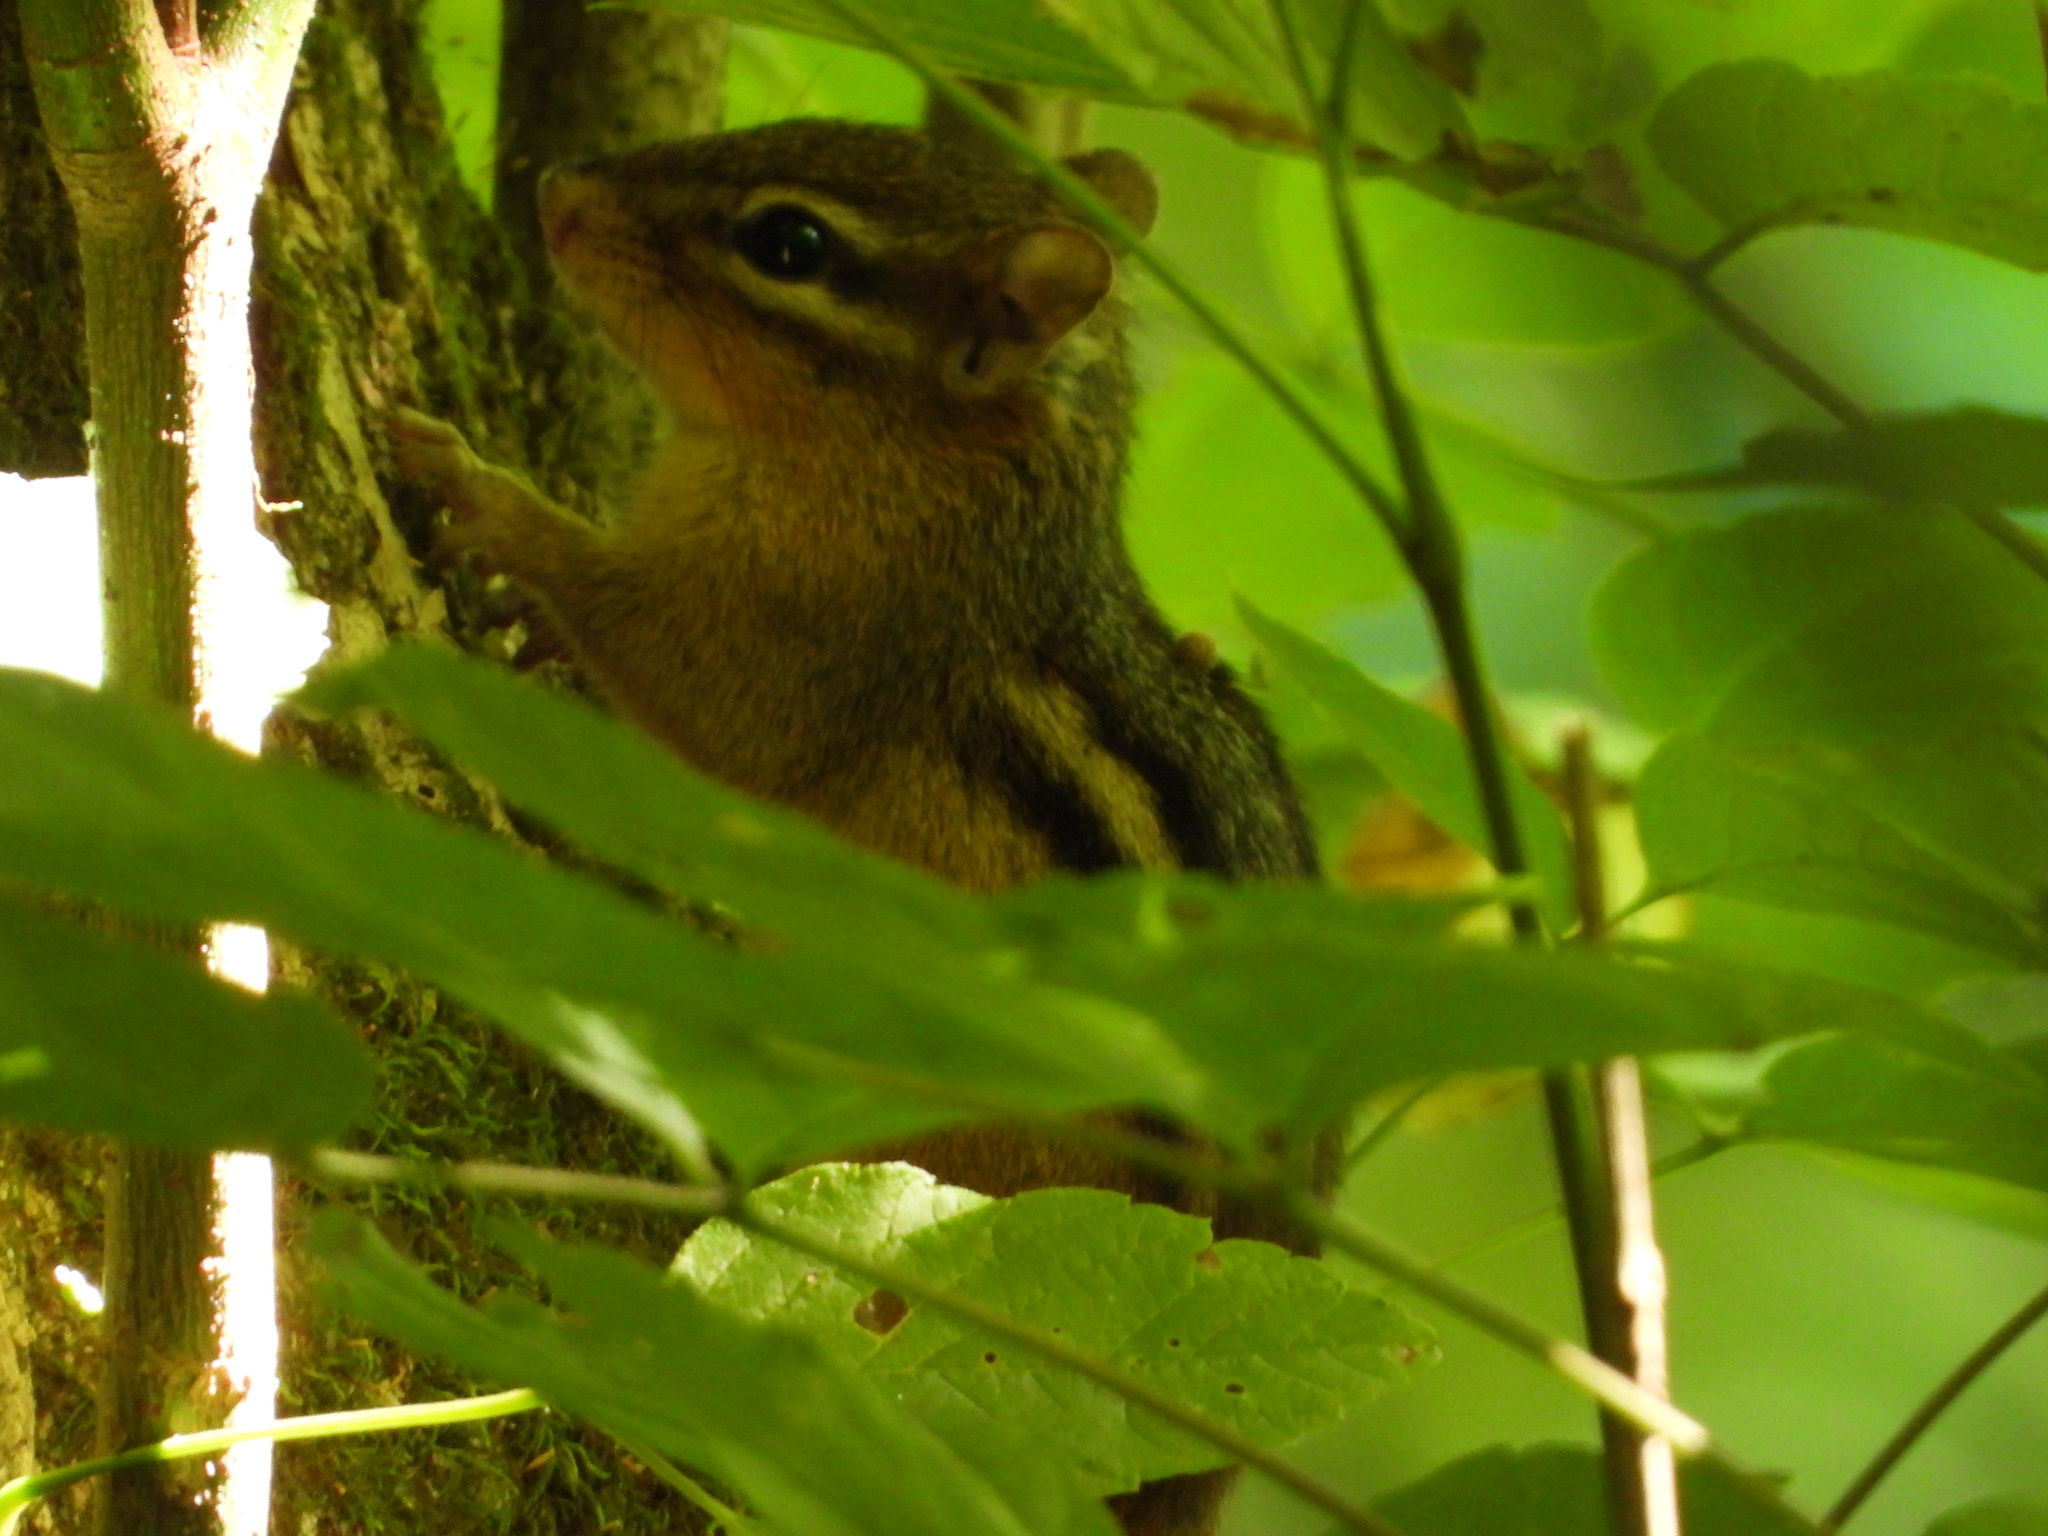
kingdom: Animalia
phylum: Chordata
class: Mammalia
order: Rodentia
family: Sciuridae
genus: Tamias
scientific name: Tamias striatus
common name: Eastern chipmunk
